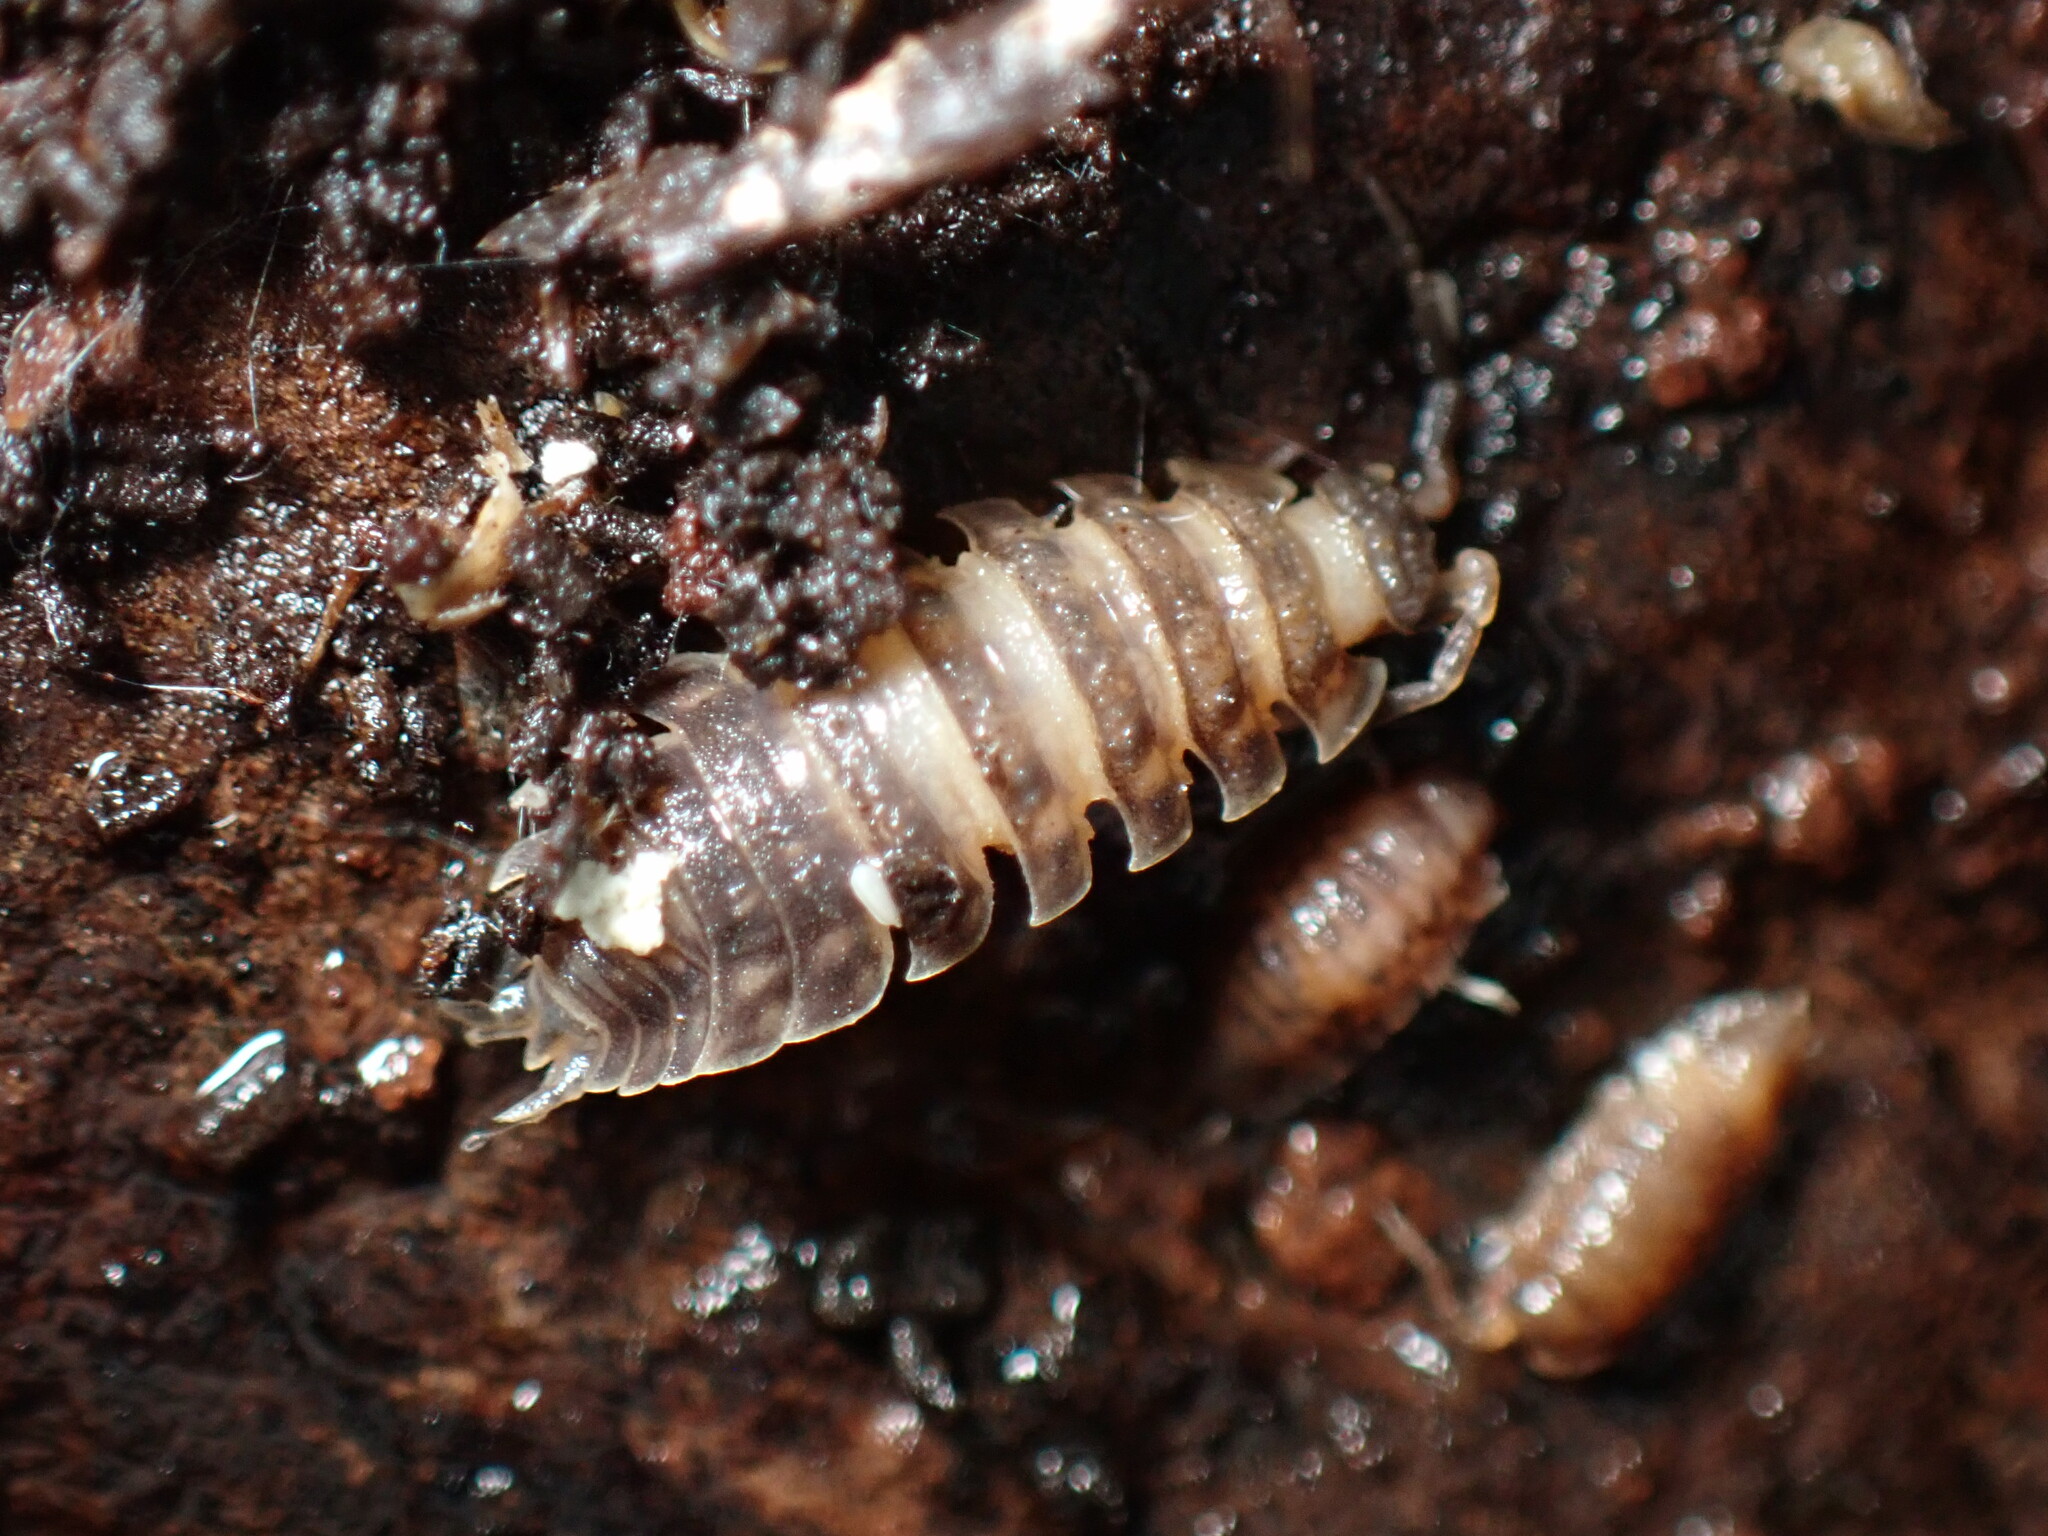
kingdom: Animalia
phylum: Arthropoda
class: Malacostraca
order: Isopoda
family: Oniscidae
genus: Oniscus
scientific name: Oniscus asellus
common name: Common shiny woodlouse
